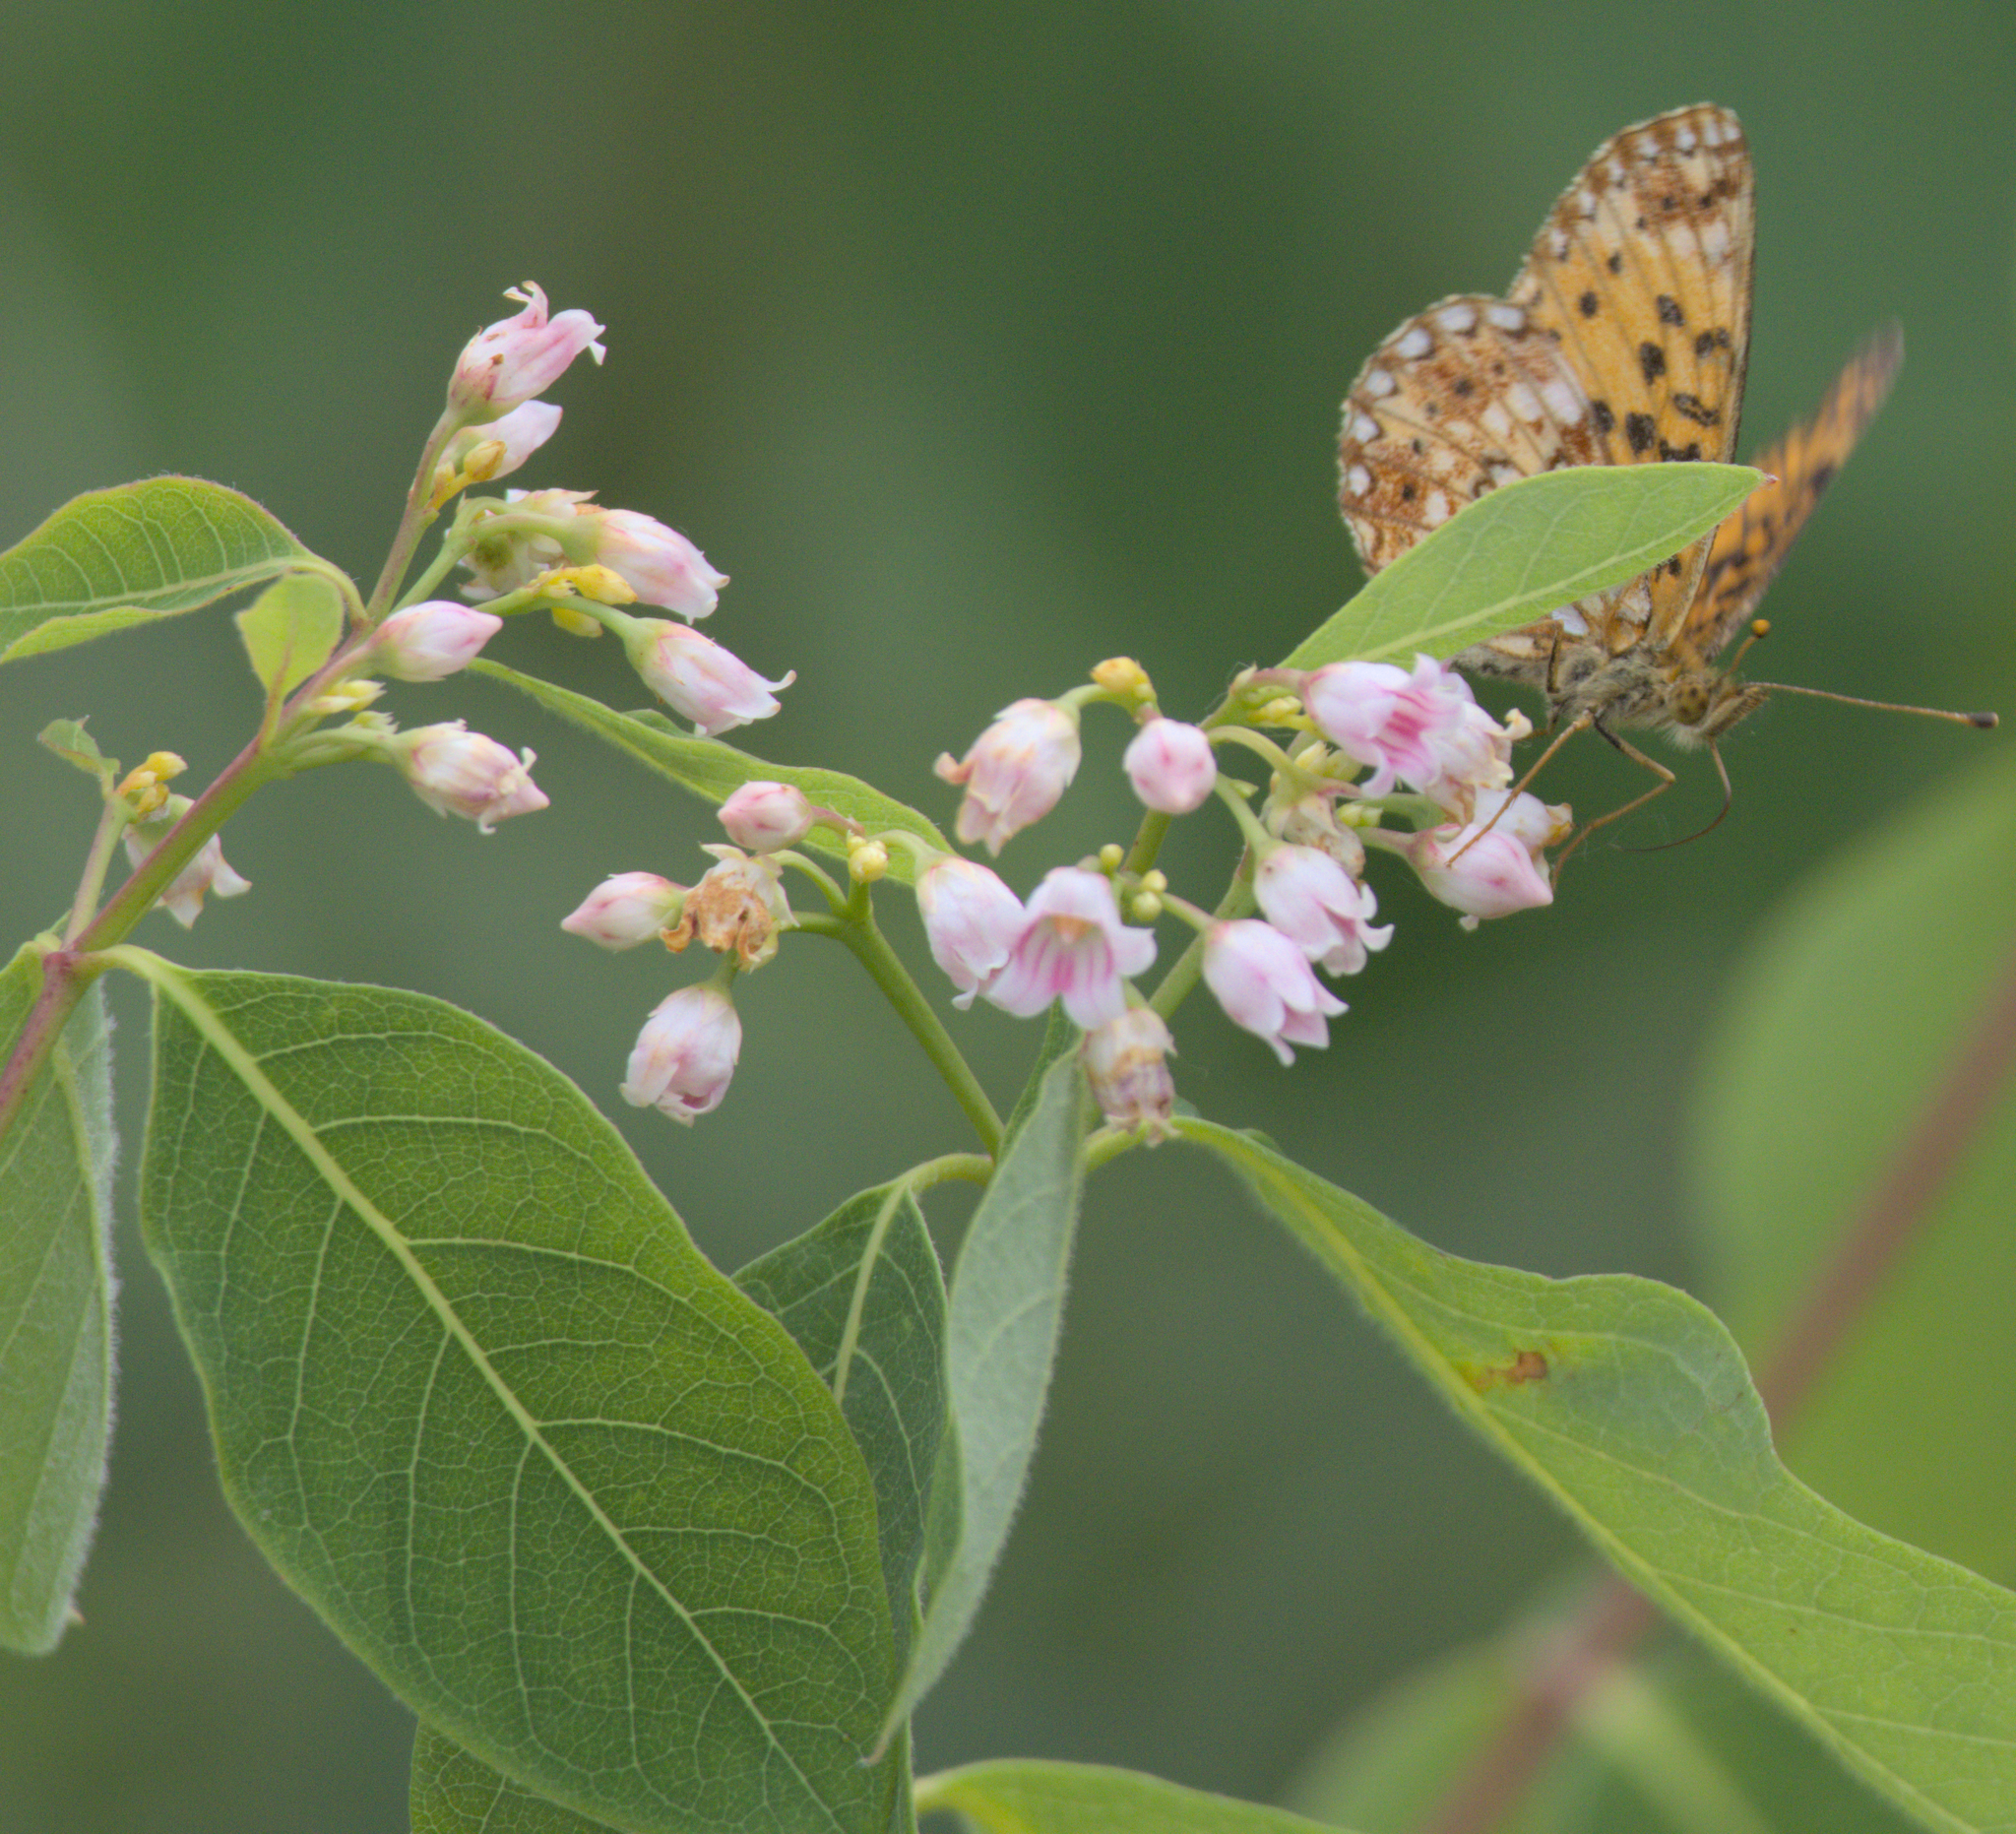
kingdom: Plantae
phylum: Tracheophyta
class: Magnoliopsida
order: Gentianales
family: Apocynaceae
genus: Apocynum
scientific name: Apocynum androsaemifolium
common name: Spreading dogbane
